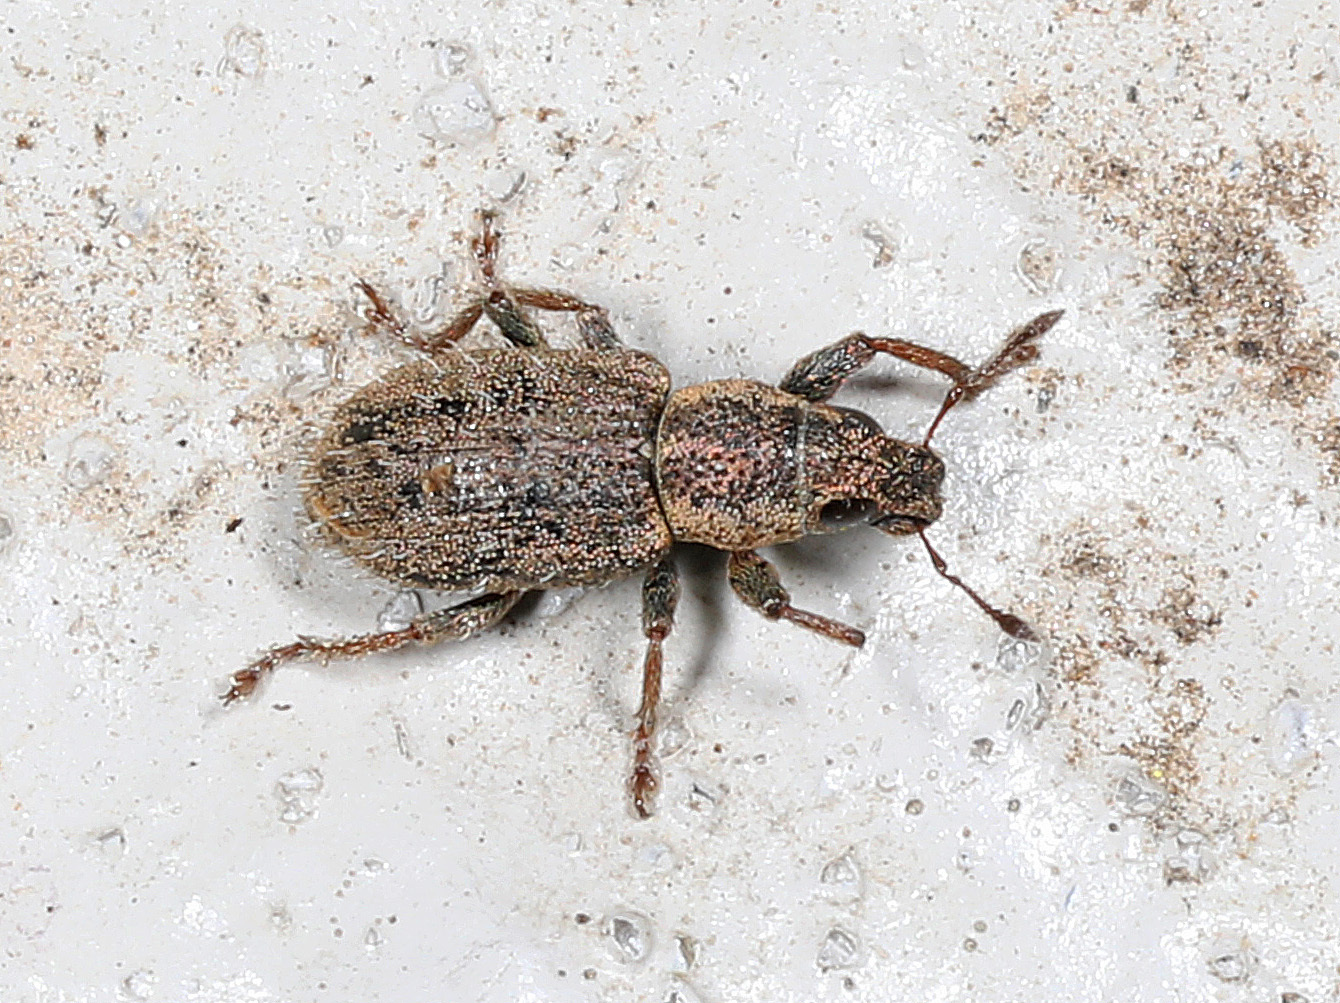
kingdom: Animalia
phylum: Arthropoda
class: Insecta
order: Coleoptera
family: Curculionidae
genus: Sitona
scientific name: Sitona hispidulus
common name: Clover weevil
